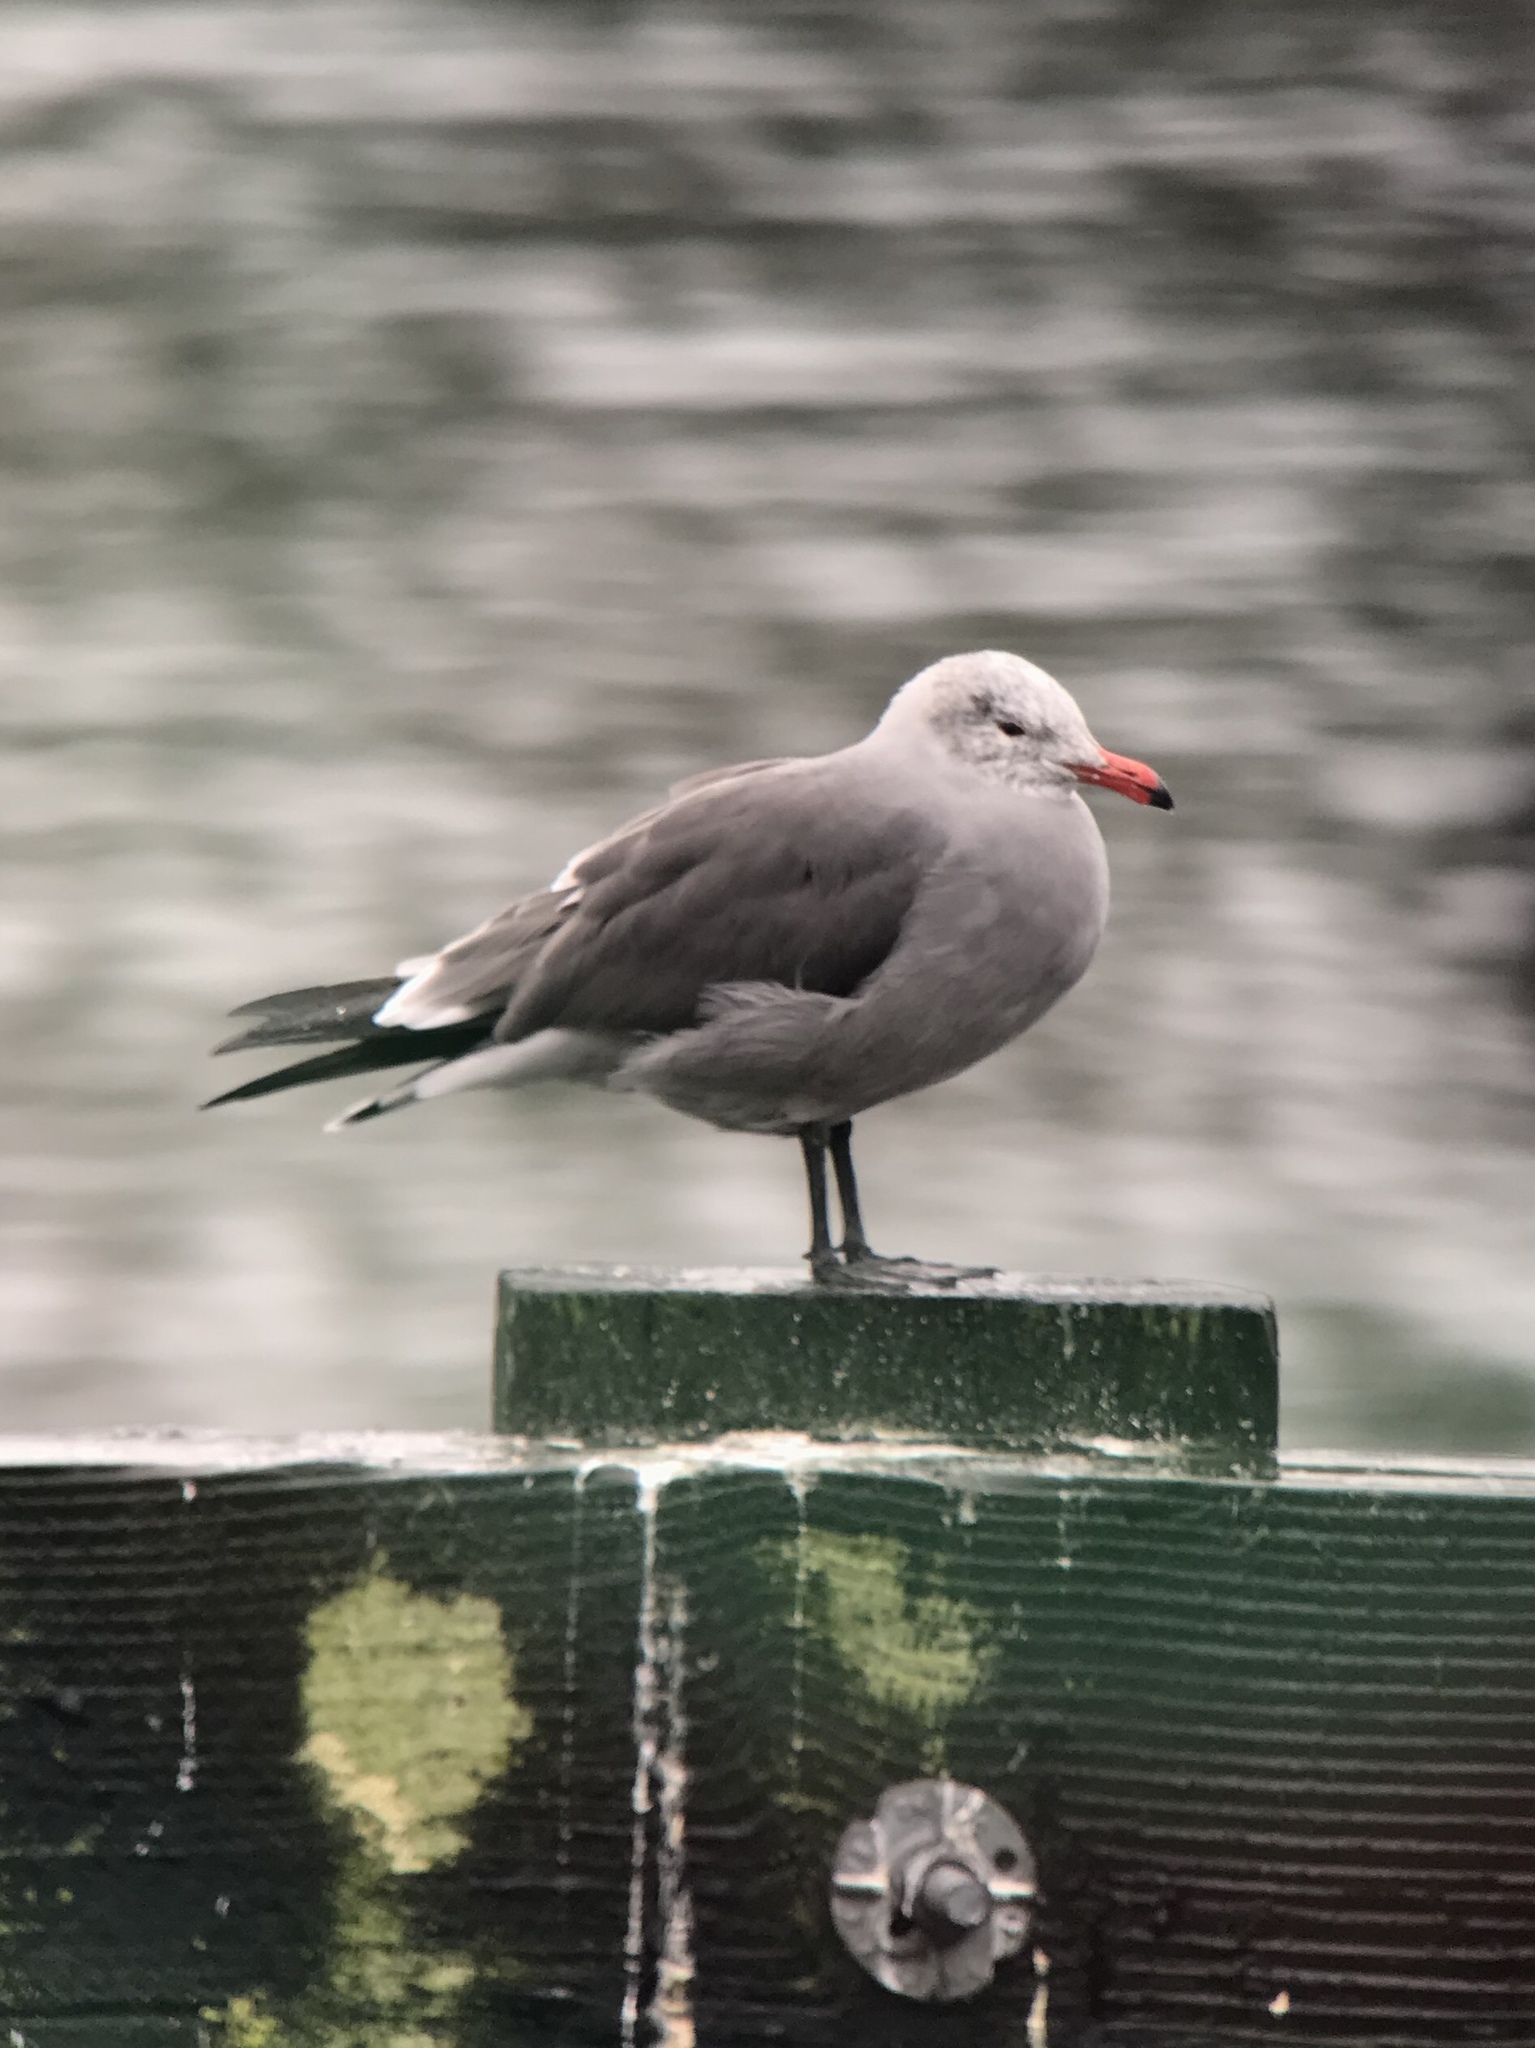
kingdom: Animalia
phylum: Chordata
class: Aves
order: Charadriiformes
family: Laridae
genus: Larus
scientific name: Larus heermanni
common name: Heermann's gull
